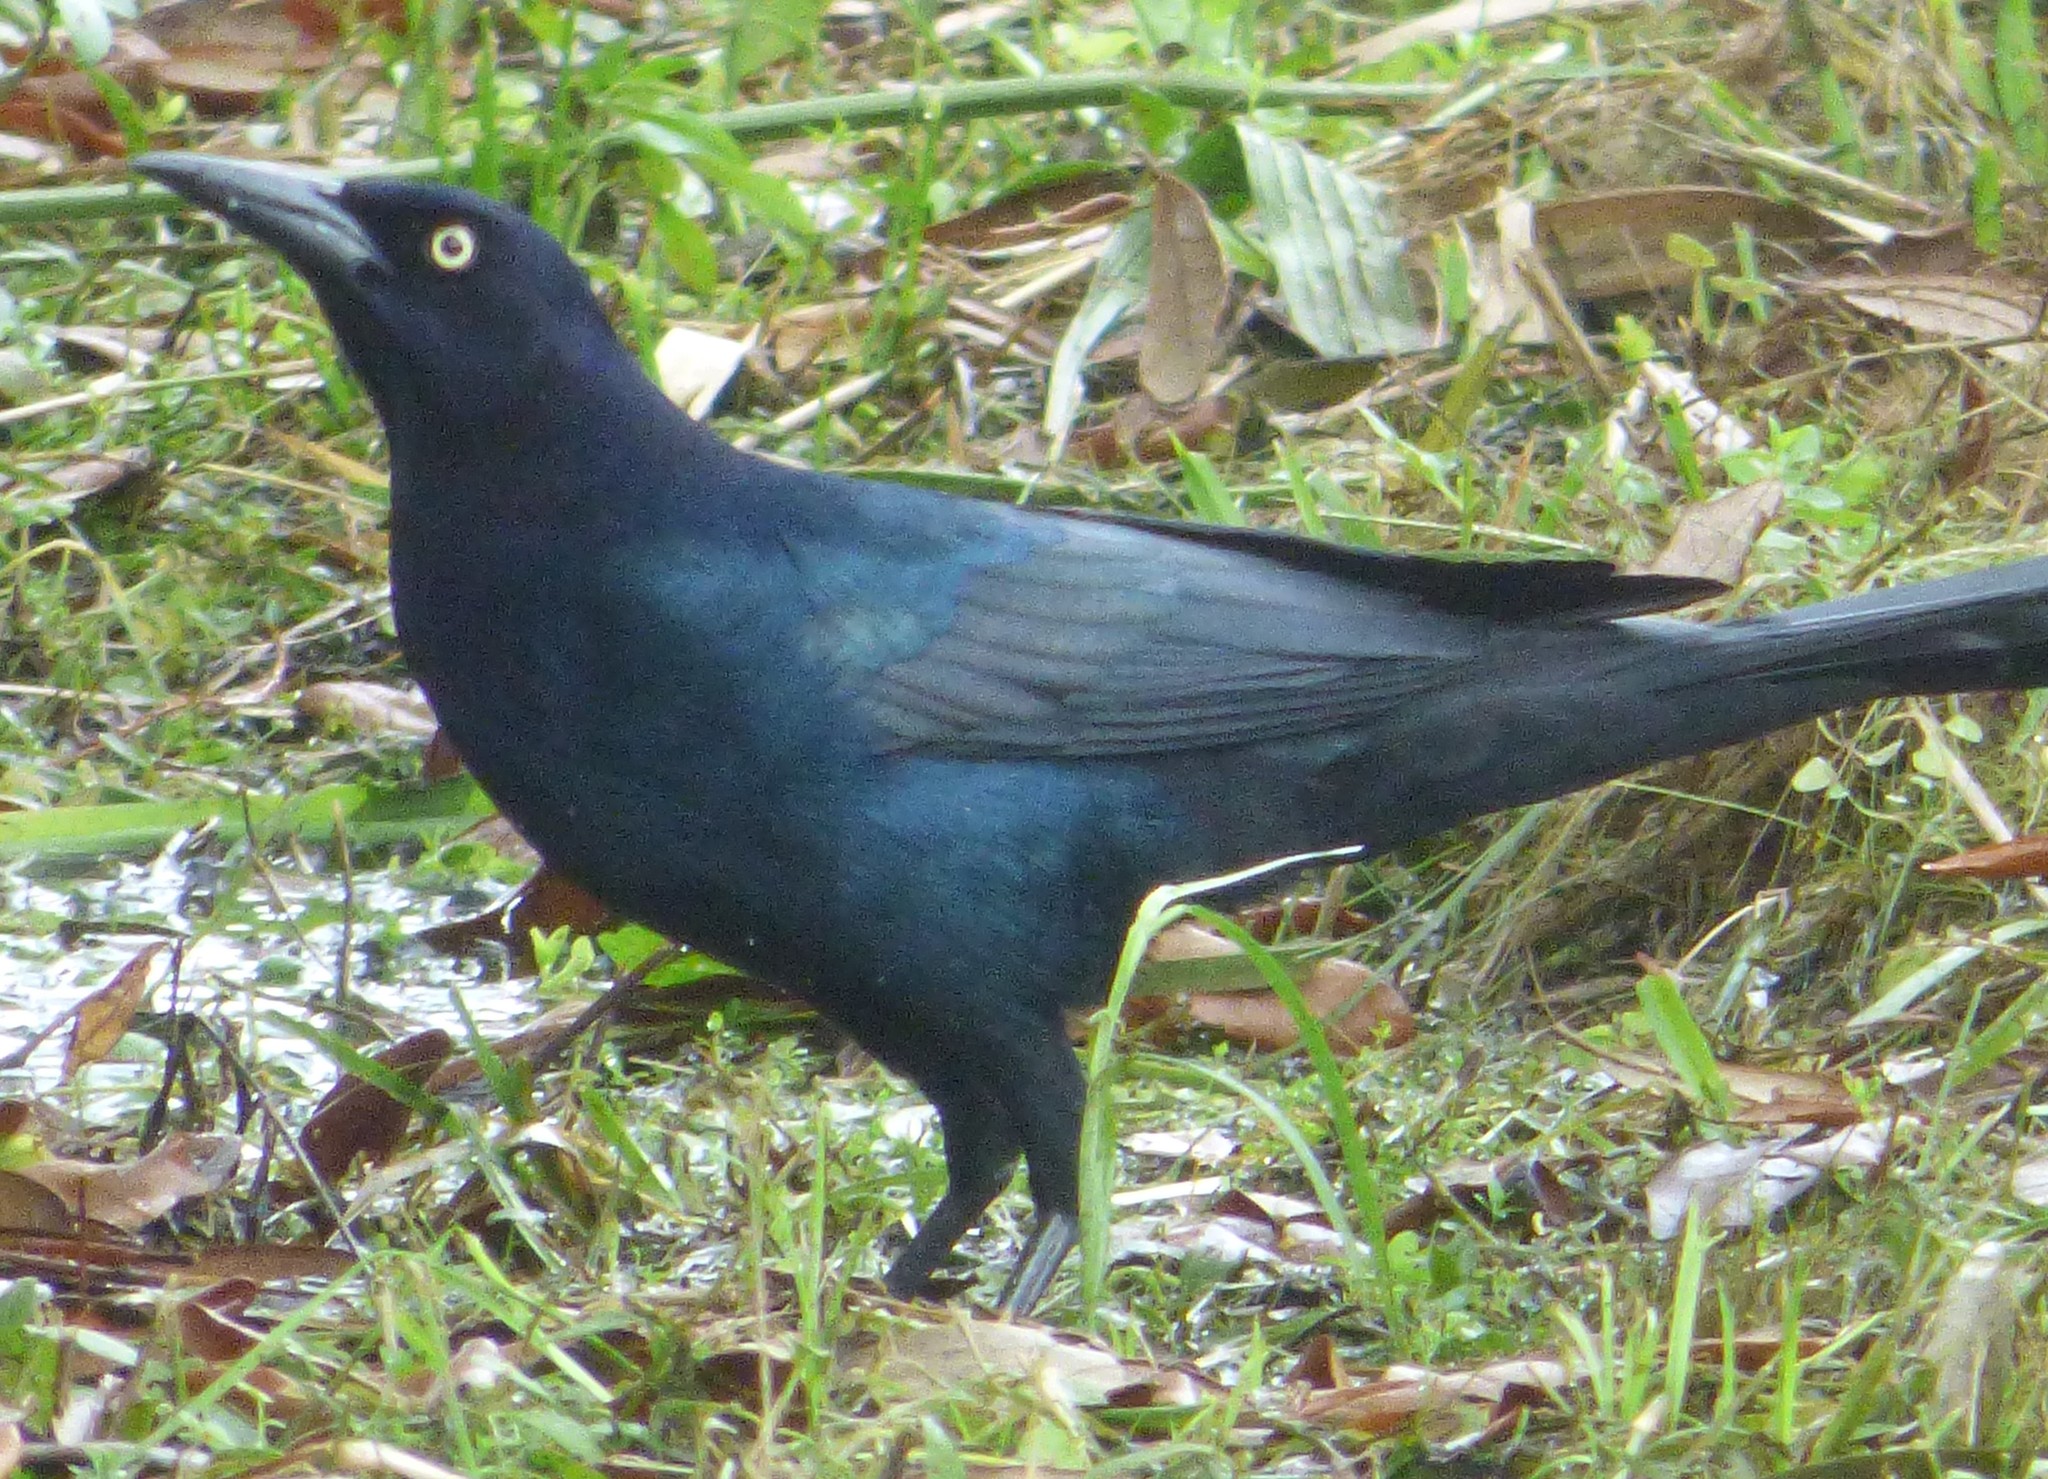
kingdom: Animalia
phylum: Chordata
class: Aves
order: Passeriformes
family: Icteridae
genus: Quiscalus
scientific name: Quiscalus major
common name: Boat-tailed grackle
